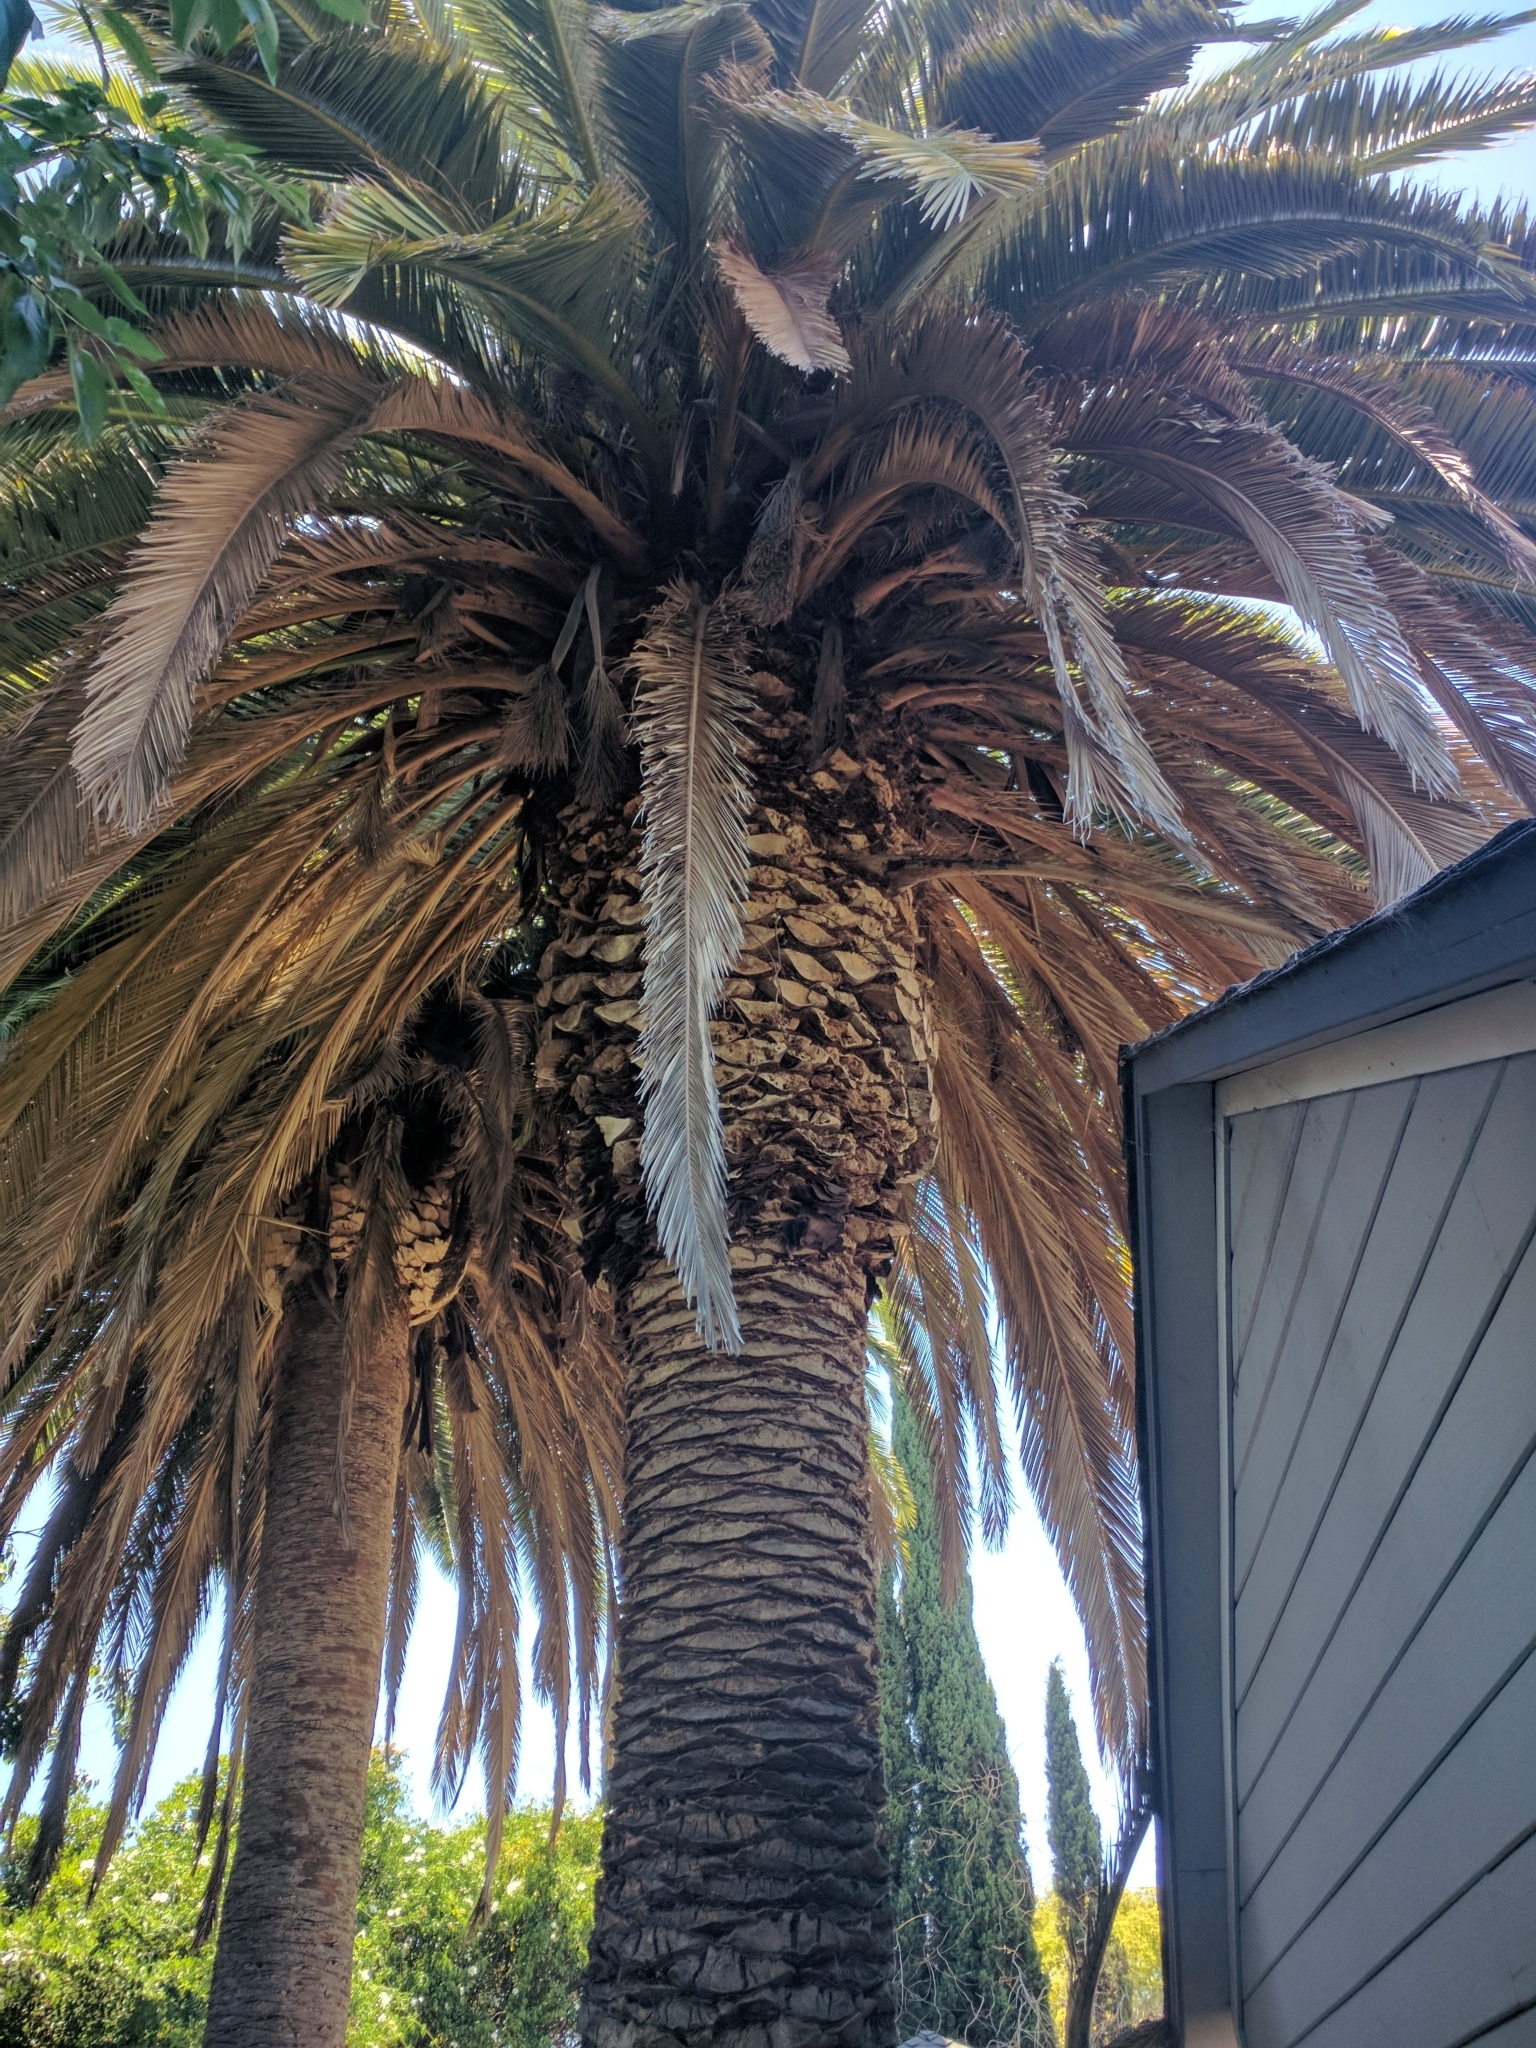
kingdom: Plantae
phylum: Tracheophyta
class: Liliopsida
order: Arecales
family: Arecaceae
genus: Phoenix
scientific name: Phoenix canariensis
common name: Canary island date palm
